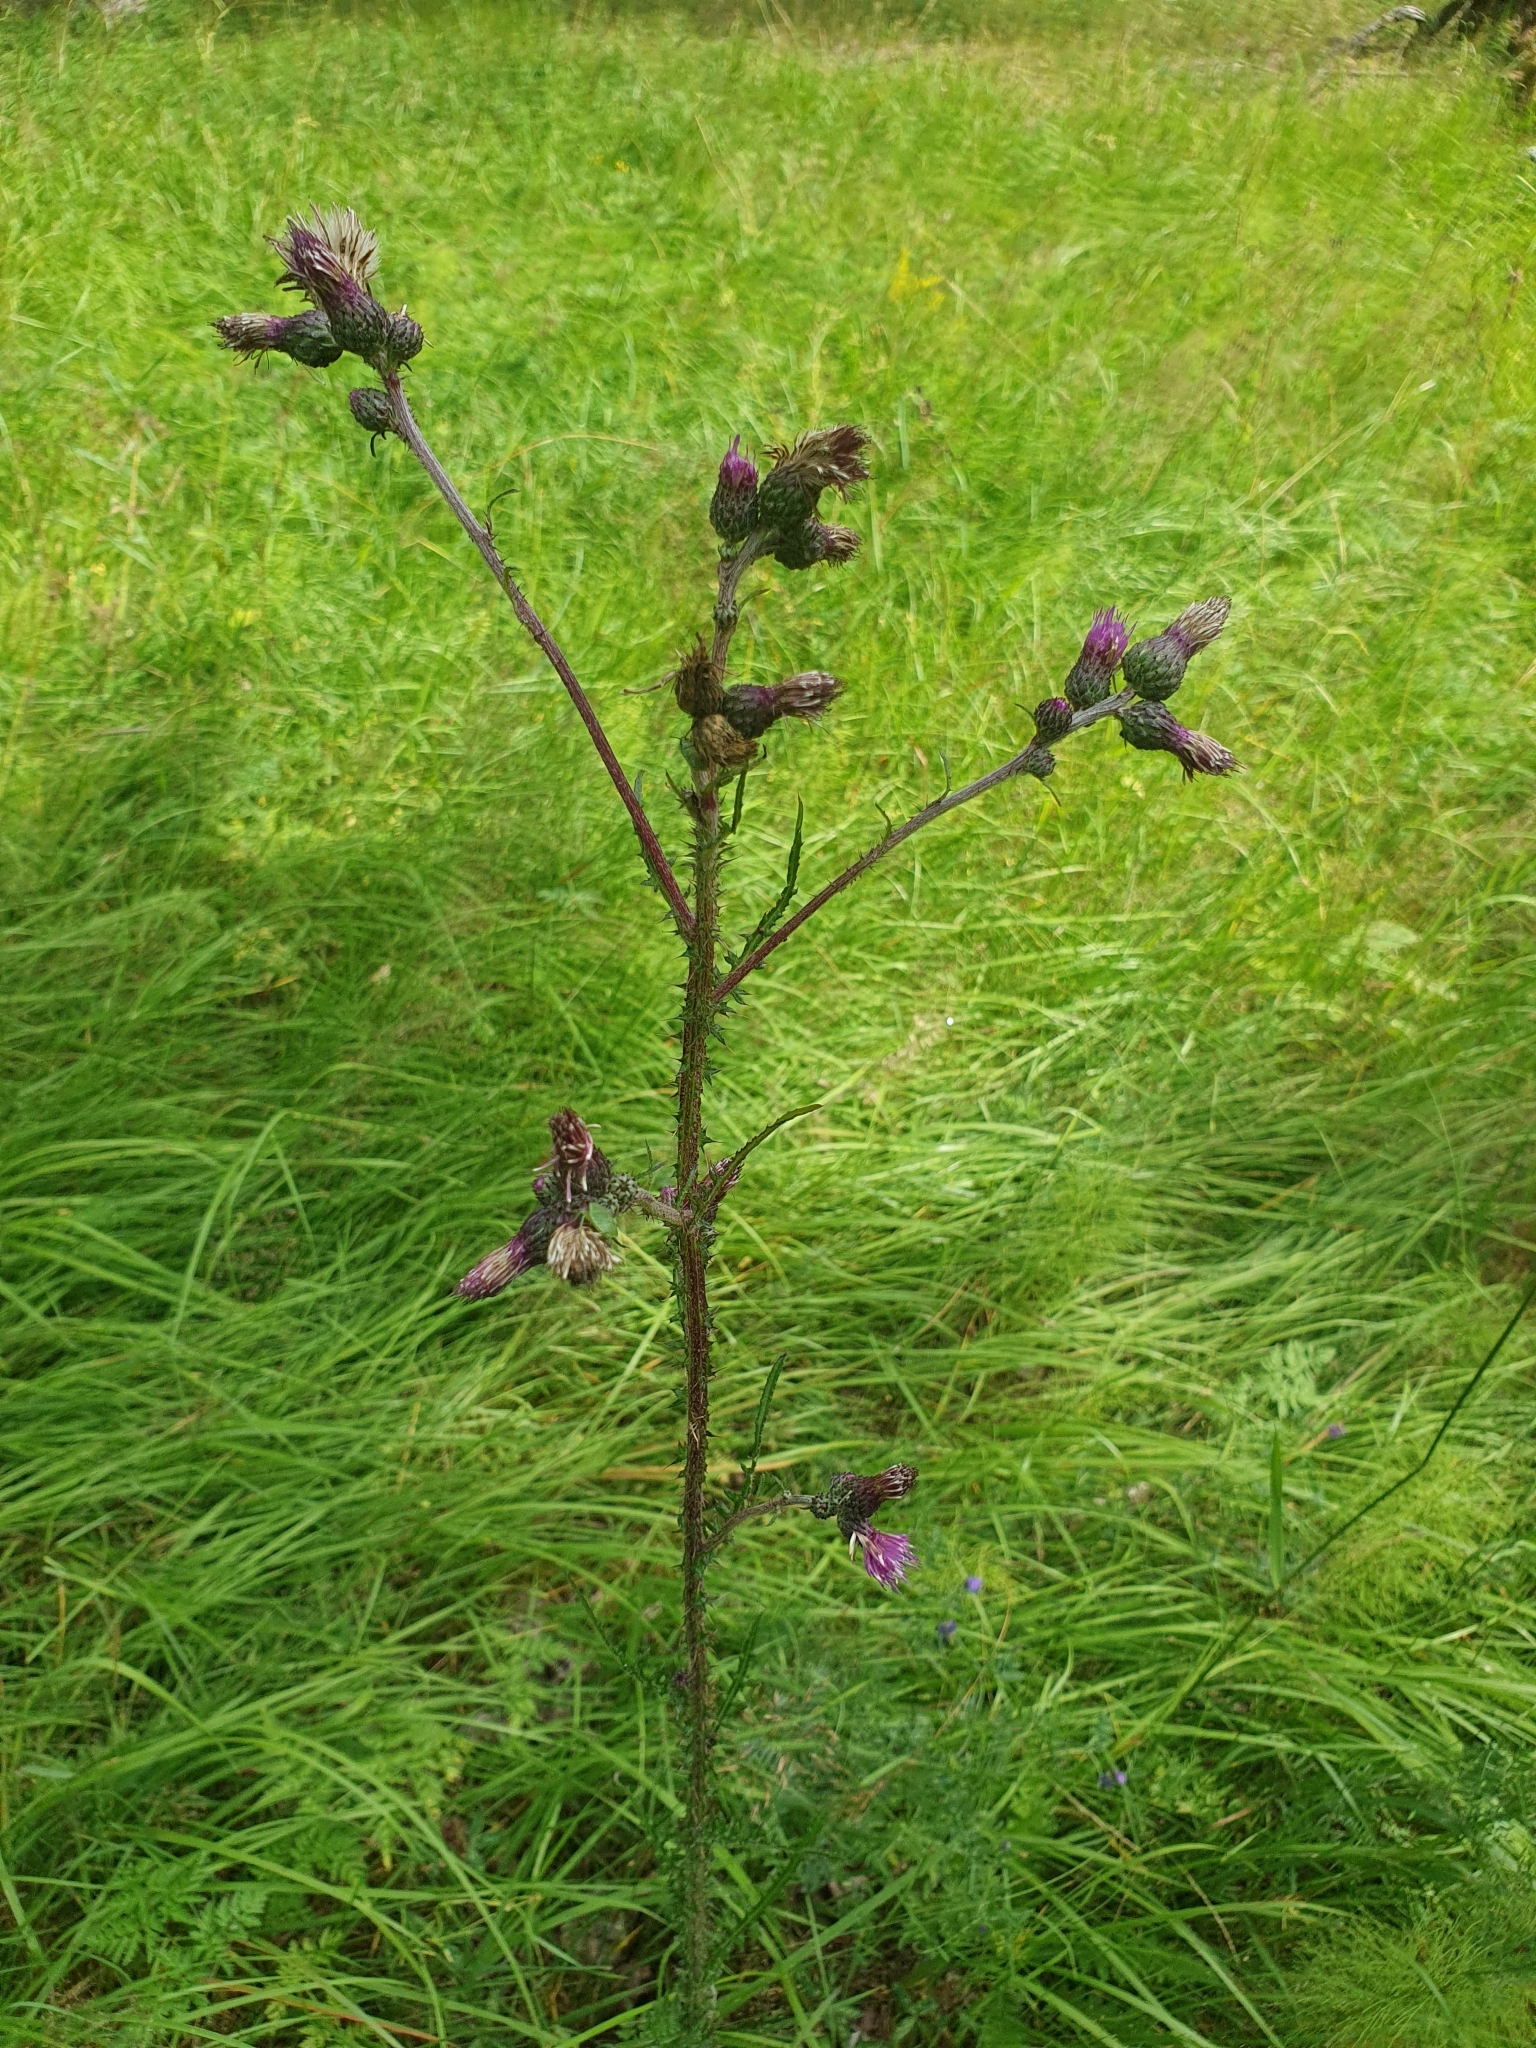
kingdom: Plantae
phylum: Tracheophyta
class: Magnoliopsida
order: Asterales
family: Asteraceae
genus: Cirsium
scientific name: Cirsium palustre
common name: Marsh thistle
